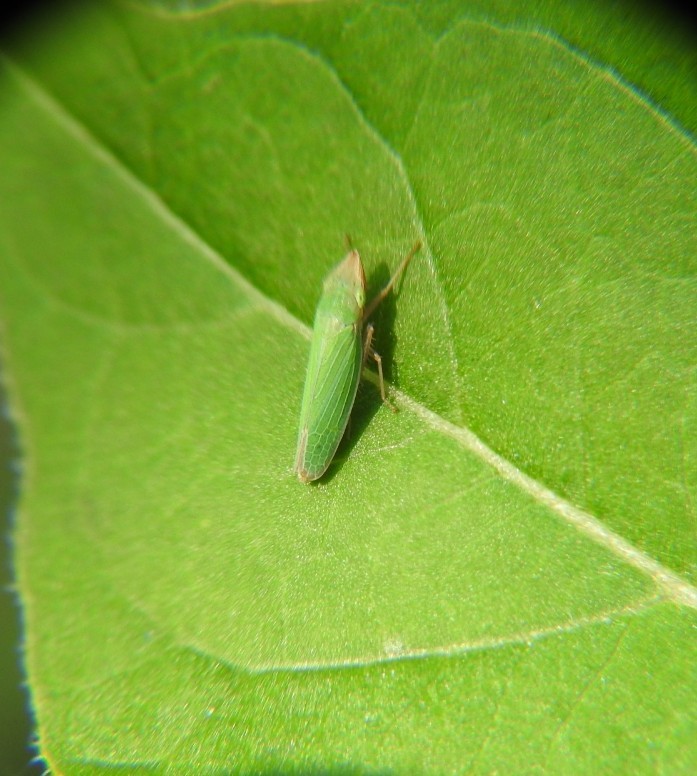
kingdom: Animalia
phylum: Arthropoda
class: Insecta
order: Hemiptera
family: Cicadellidae
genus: Draeculacephala
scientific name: Draeculacephala soluta
